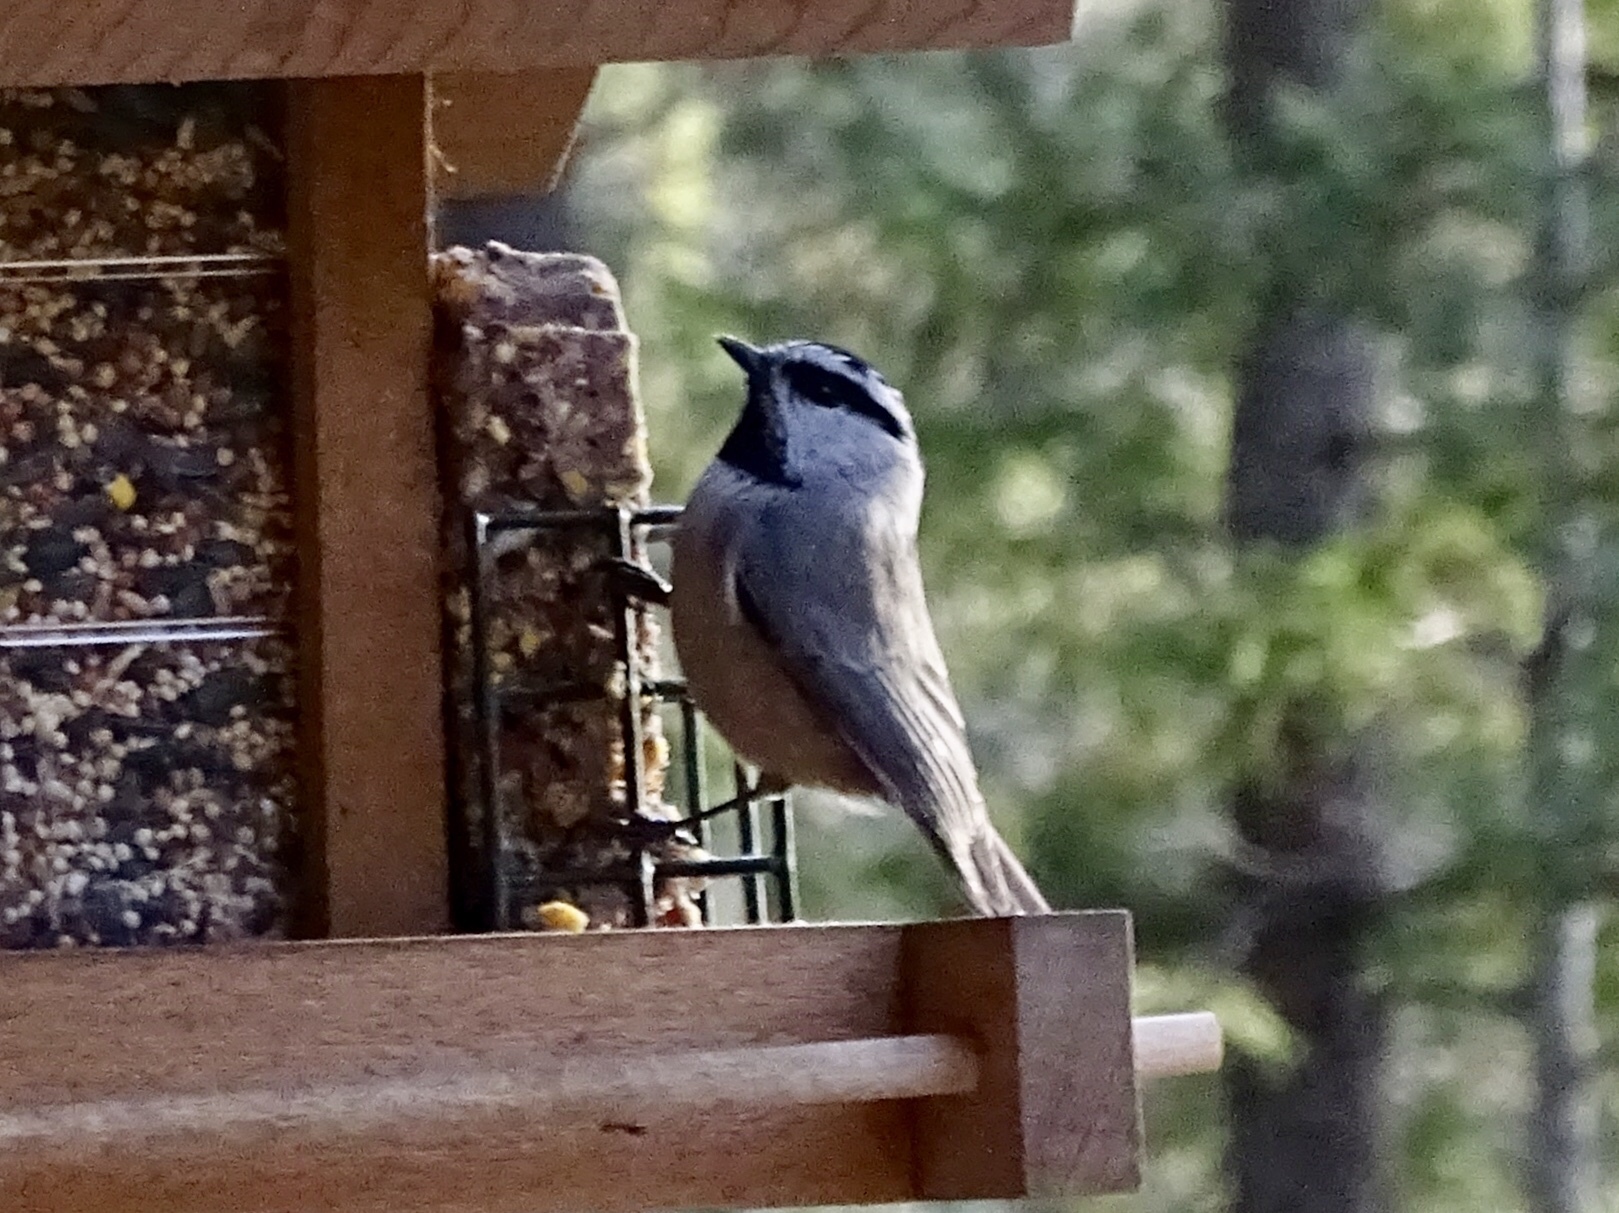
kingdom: Animalia
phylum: Chordata
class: Aves
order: Passeriformes
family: Paridae
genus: Poecile
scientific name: Poecile gambeli
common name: Mountain chickadee
